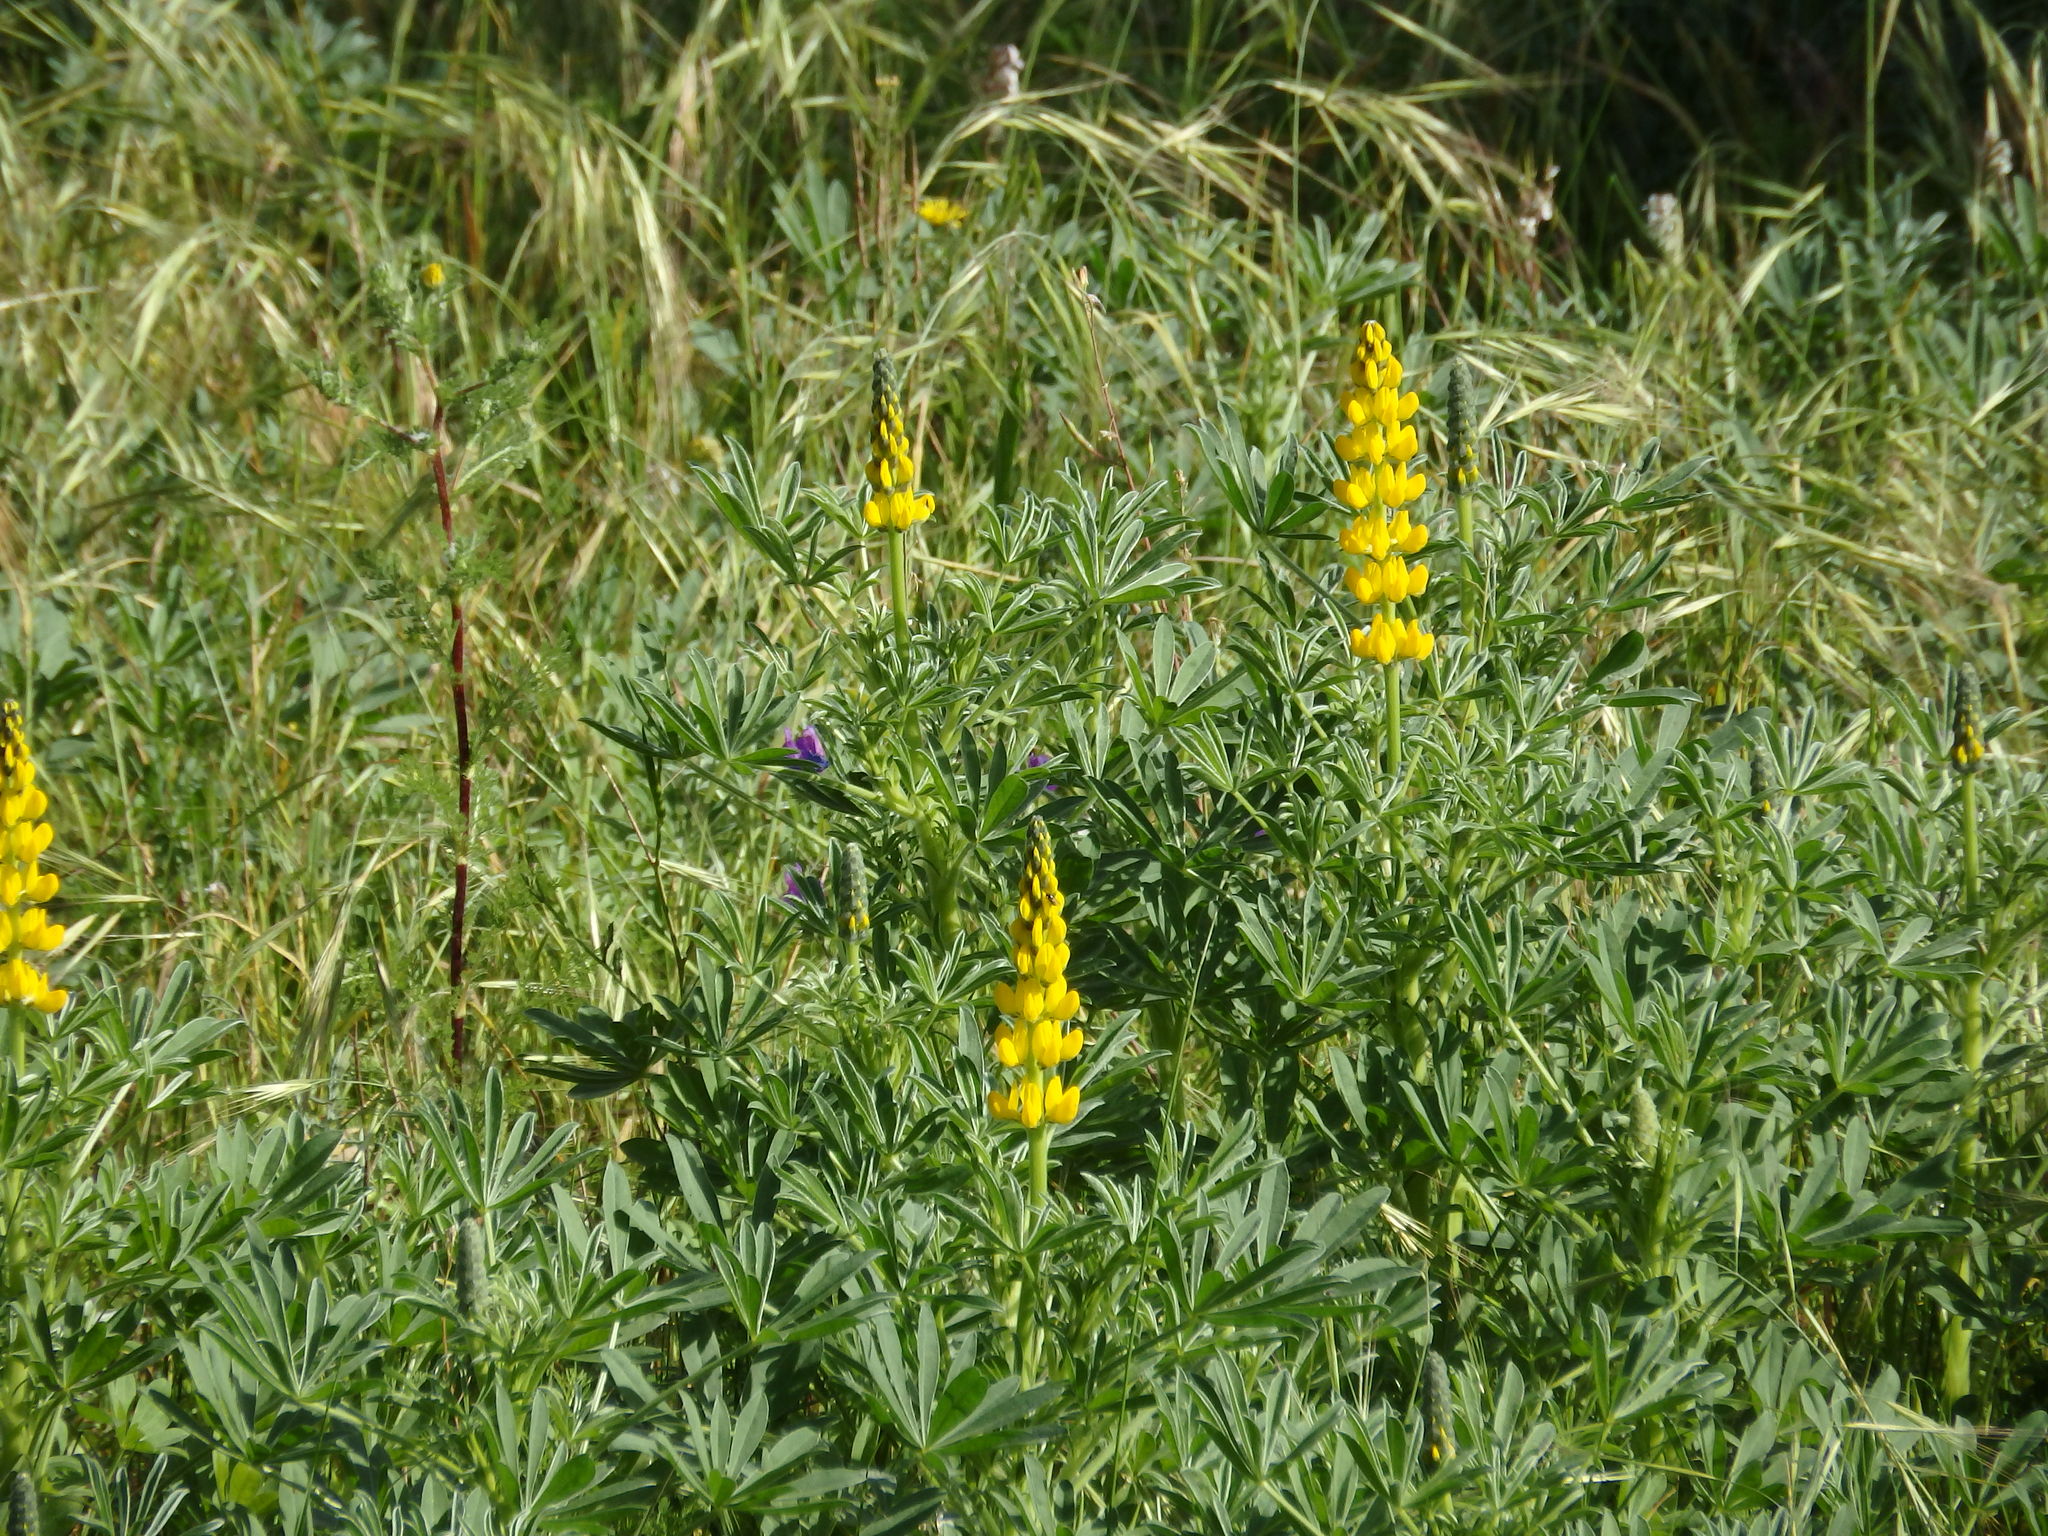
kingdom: Plantae
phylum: Tracheophyta
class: Magnoliopsida
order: Fabales
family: Fabaceae
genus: Lupinus
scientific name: Lupinus luteus
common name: European yellow lupine
